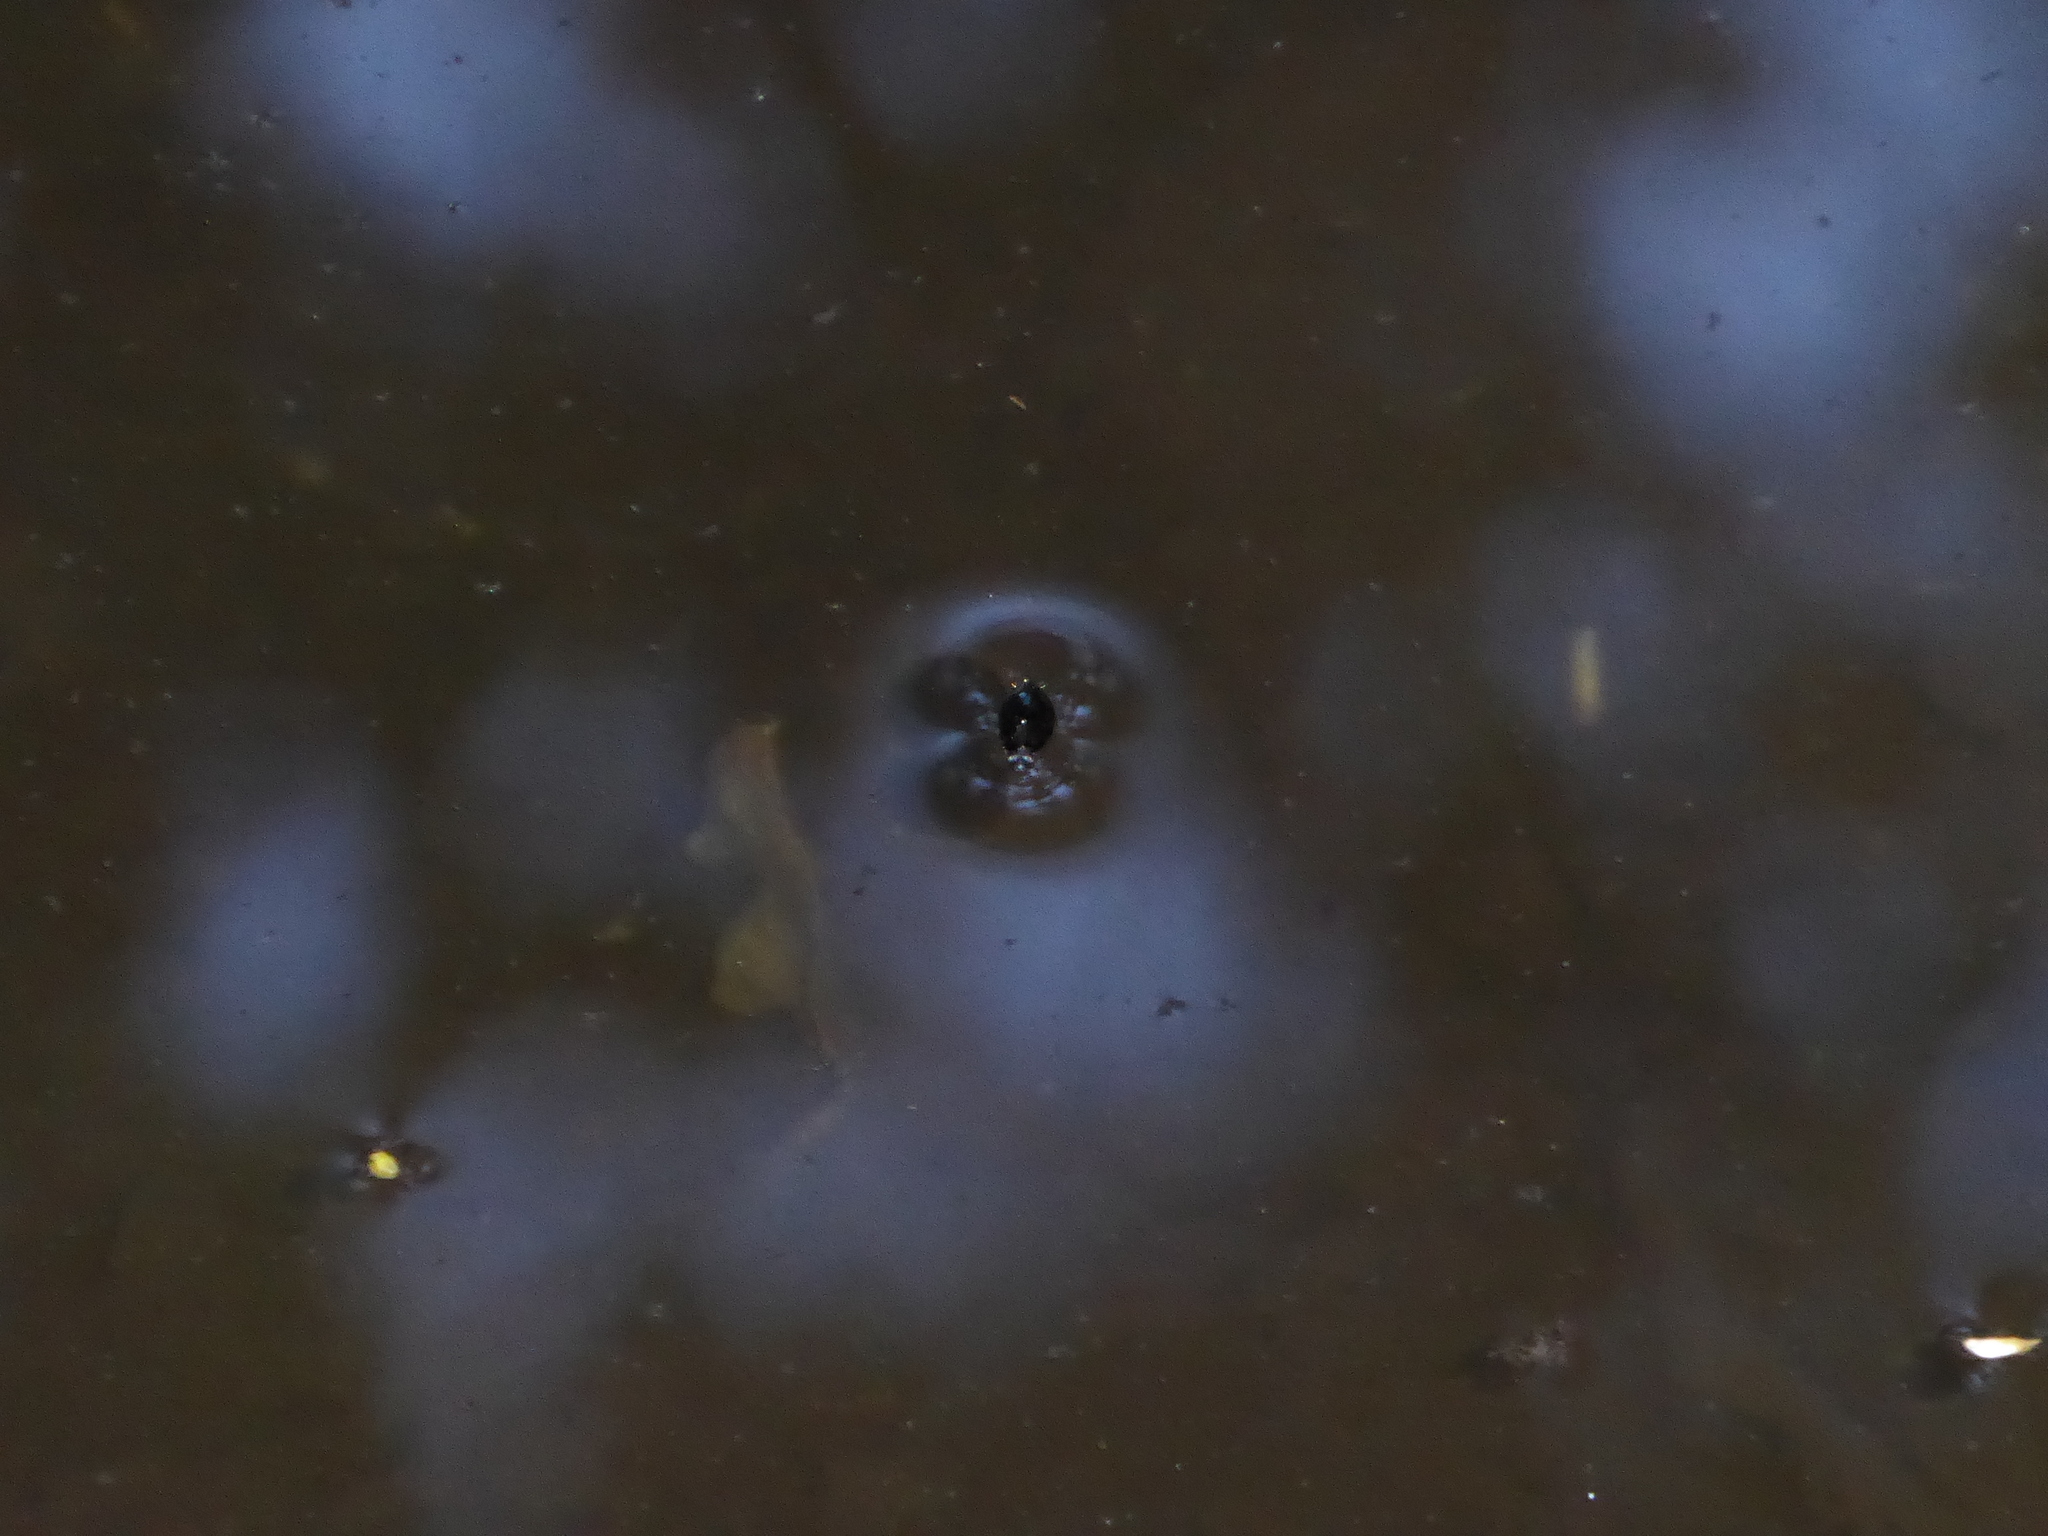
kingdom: Animalia
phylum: Arthropoda
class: Insecta
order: Coleoptera
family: Gyrinidae
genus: Gyrinus
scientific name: Gyrinus
